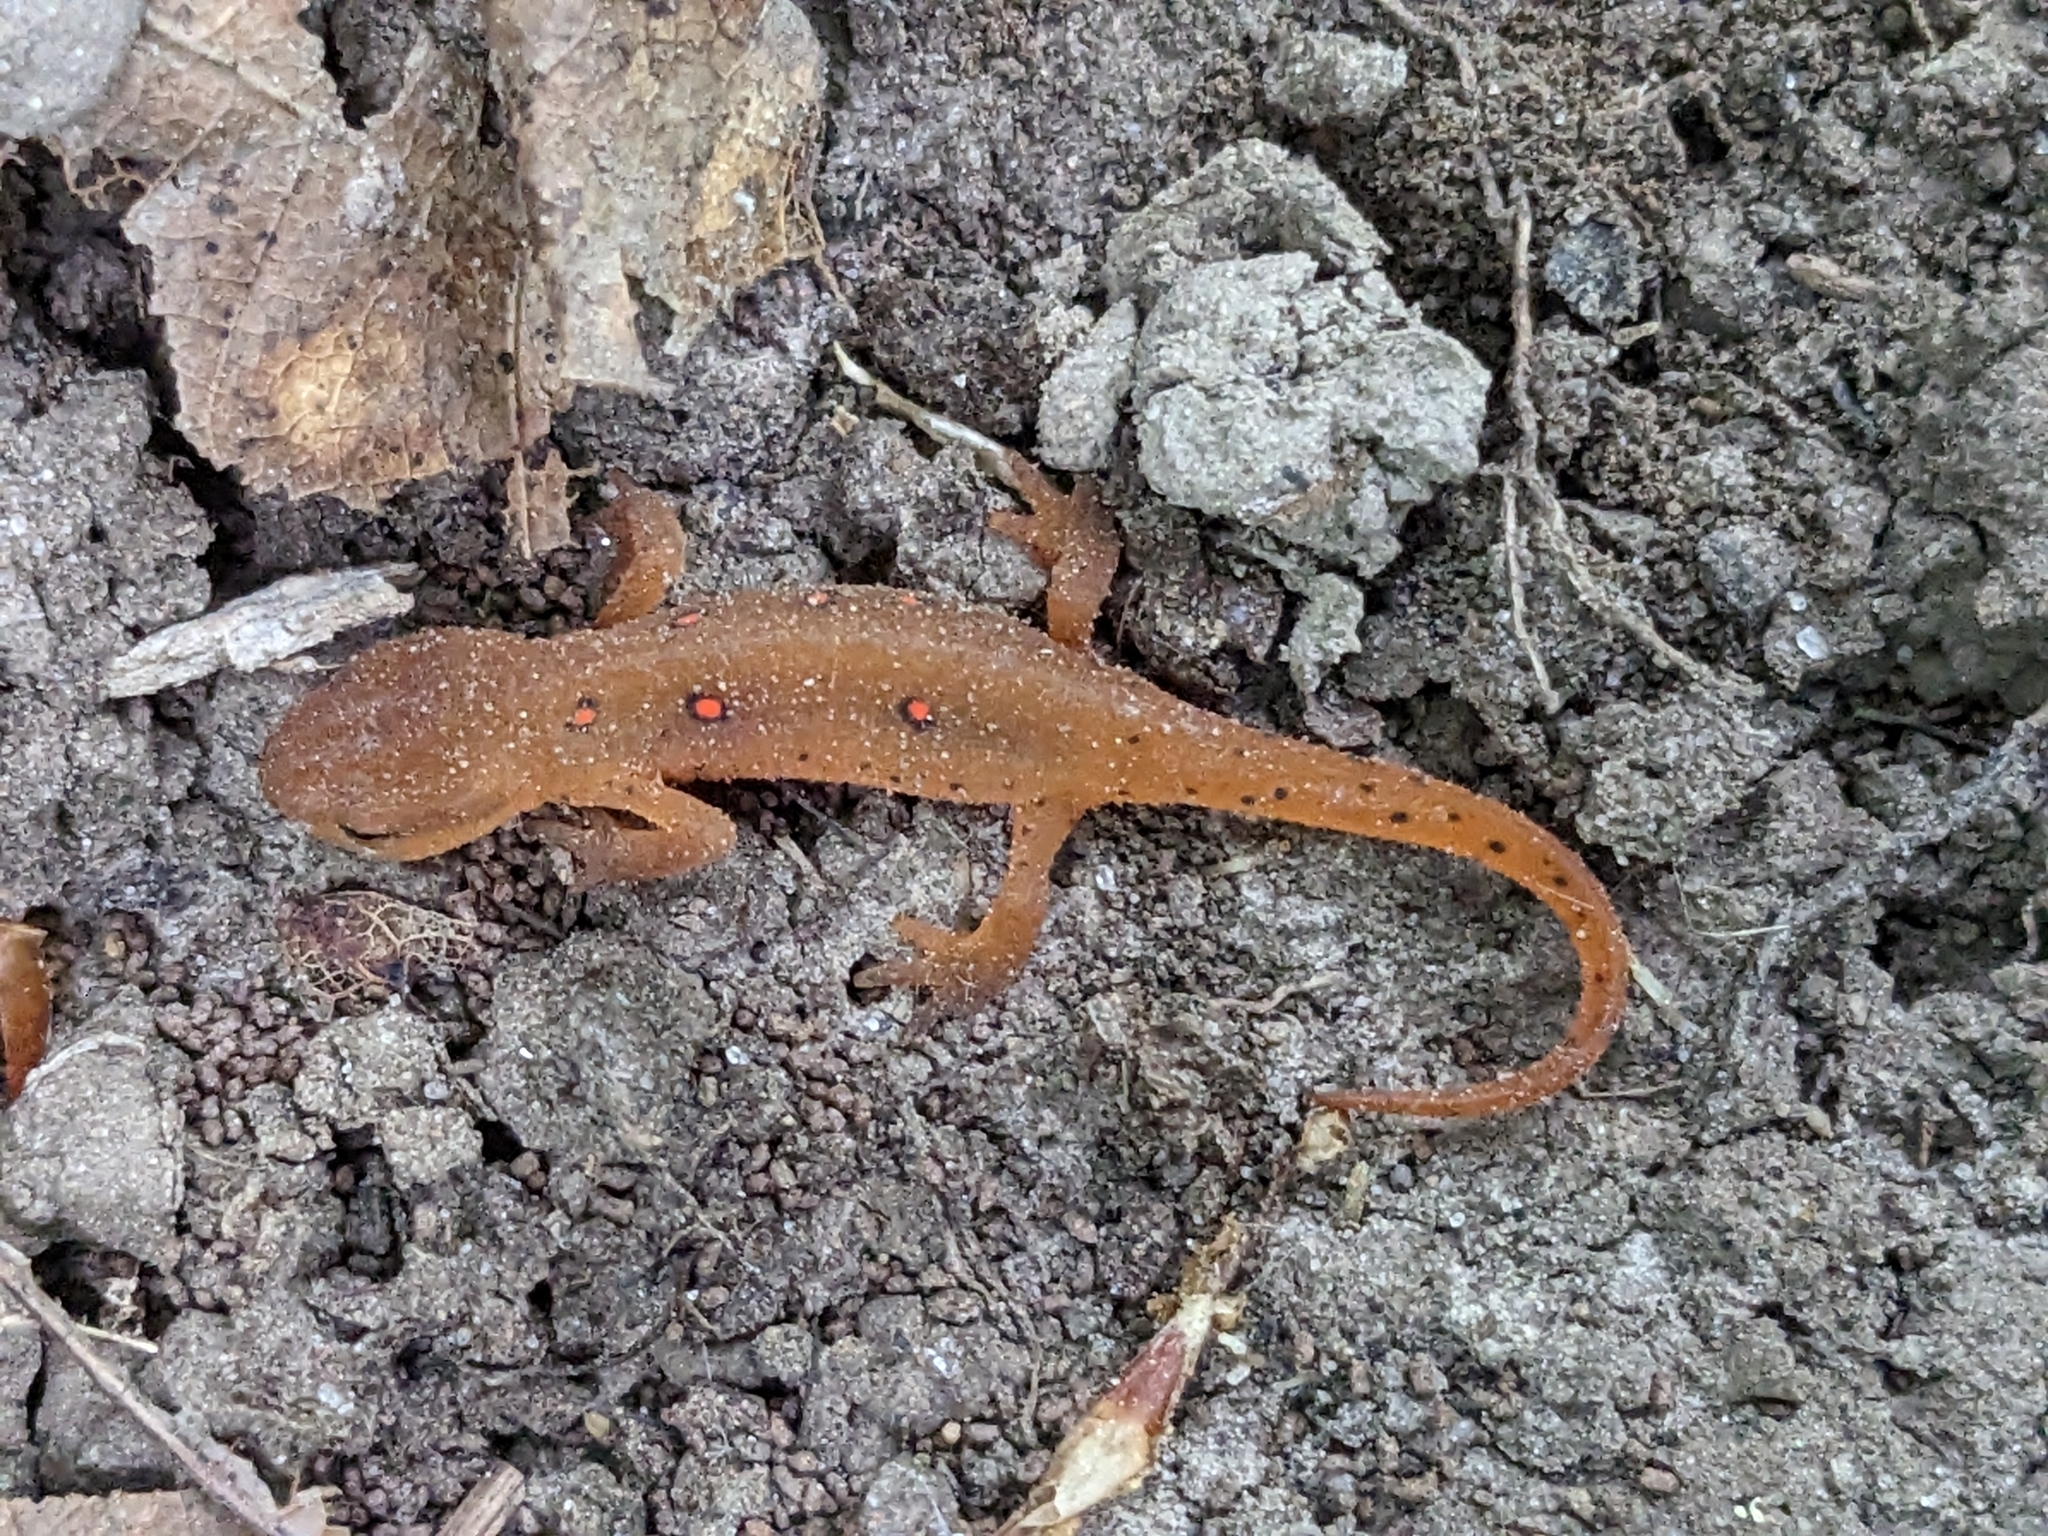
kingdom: Animalia
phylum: Chordata
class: Amphibia
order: Caudata
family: Salamandridae
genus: Notophthalmus
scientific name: Notophthalmus viridescens
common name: Eastern newt
